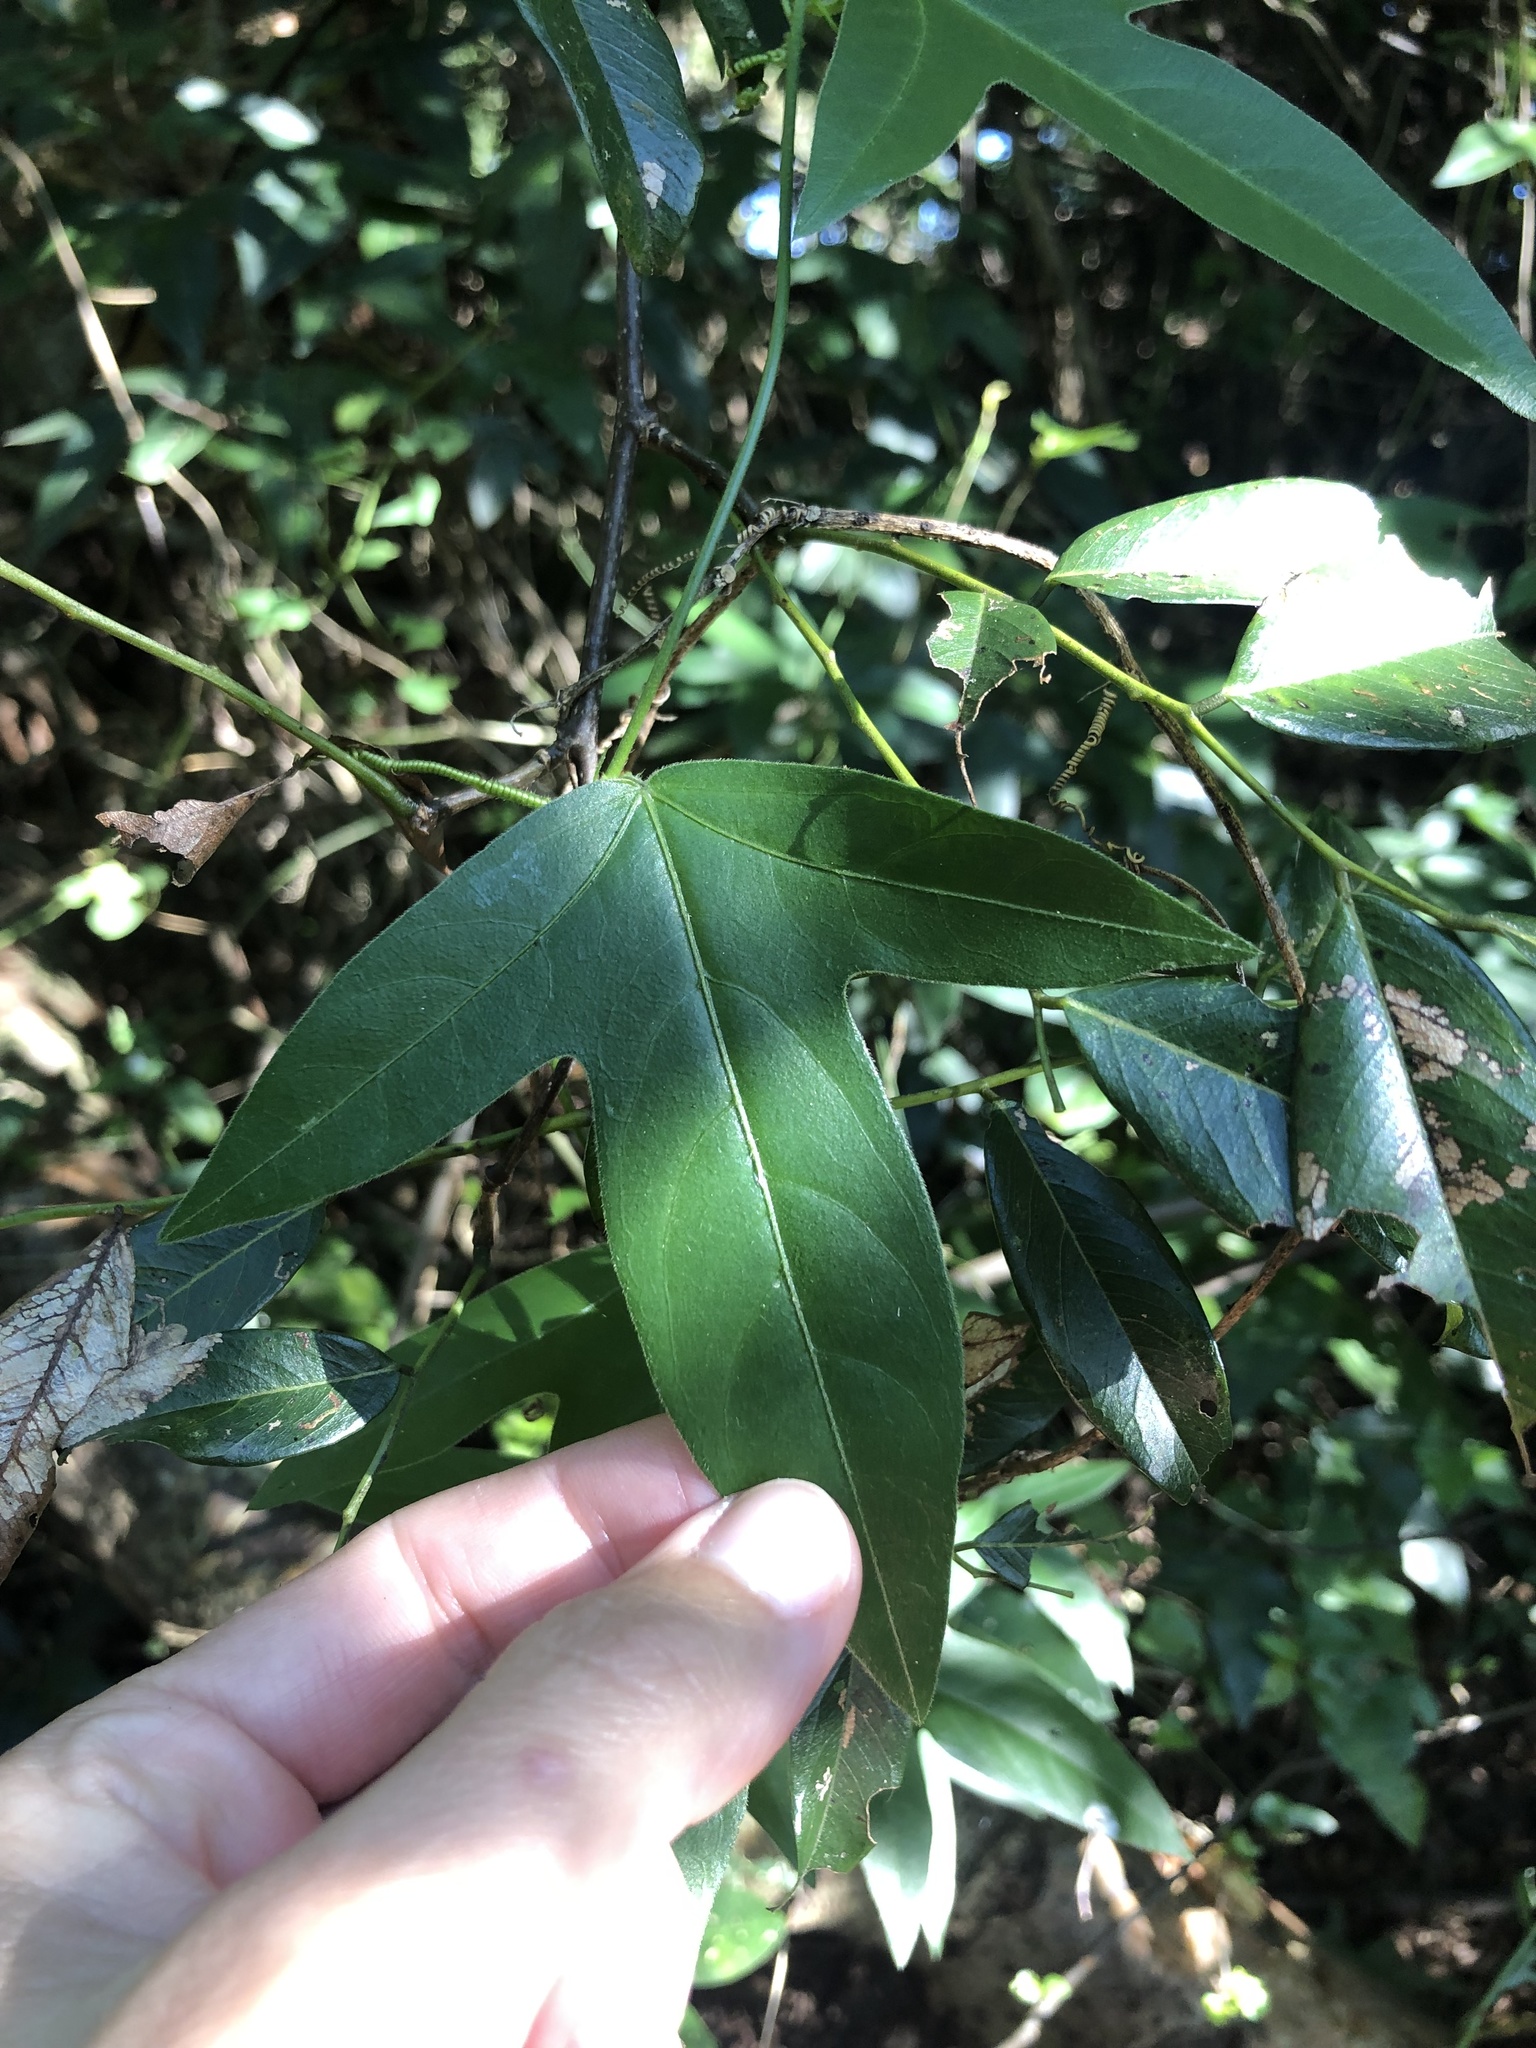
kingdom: Plantae
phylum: Tracheophyta
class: Magnoliopsida
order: Malpighiales
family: Passifloraceae
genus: Passiflora
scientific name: Passiflora suberosa
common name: Wild passionfruit
